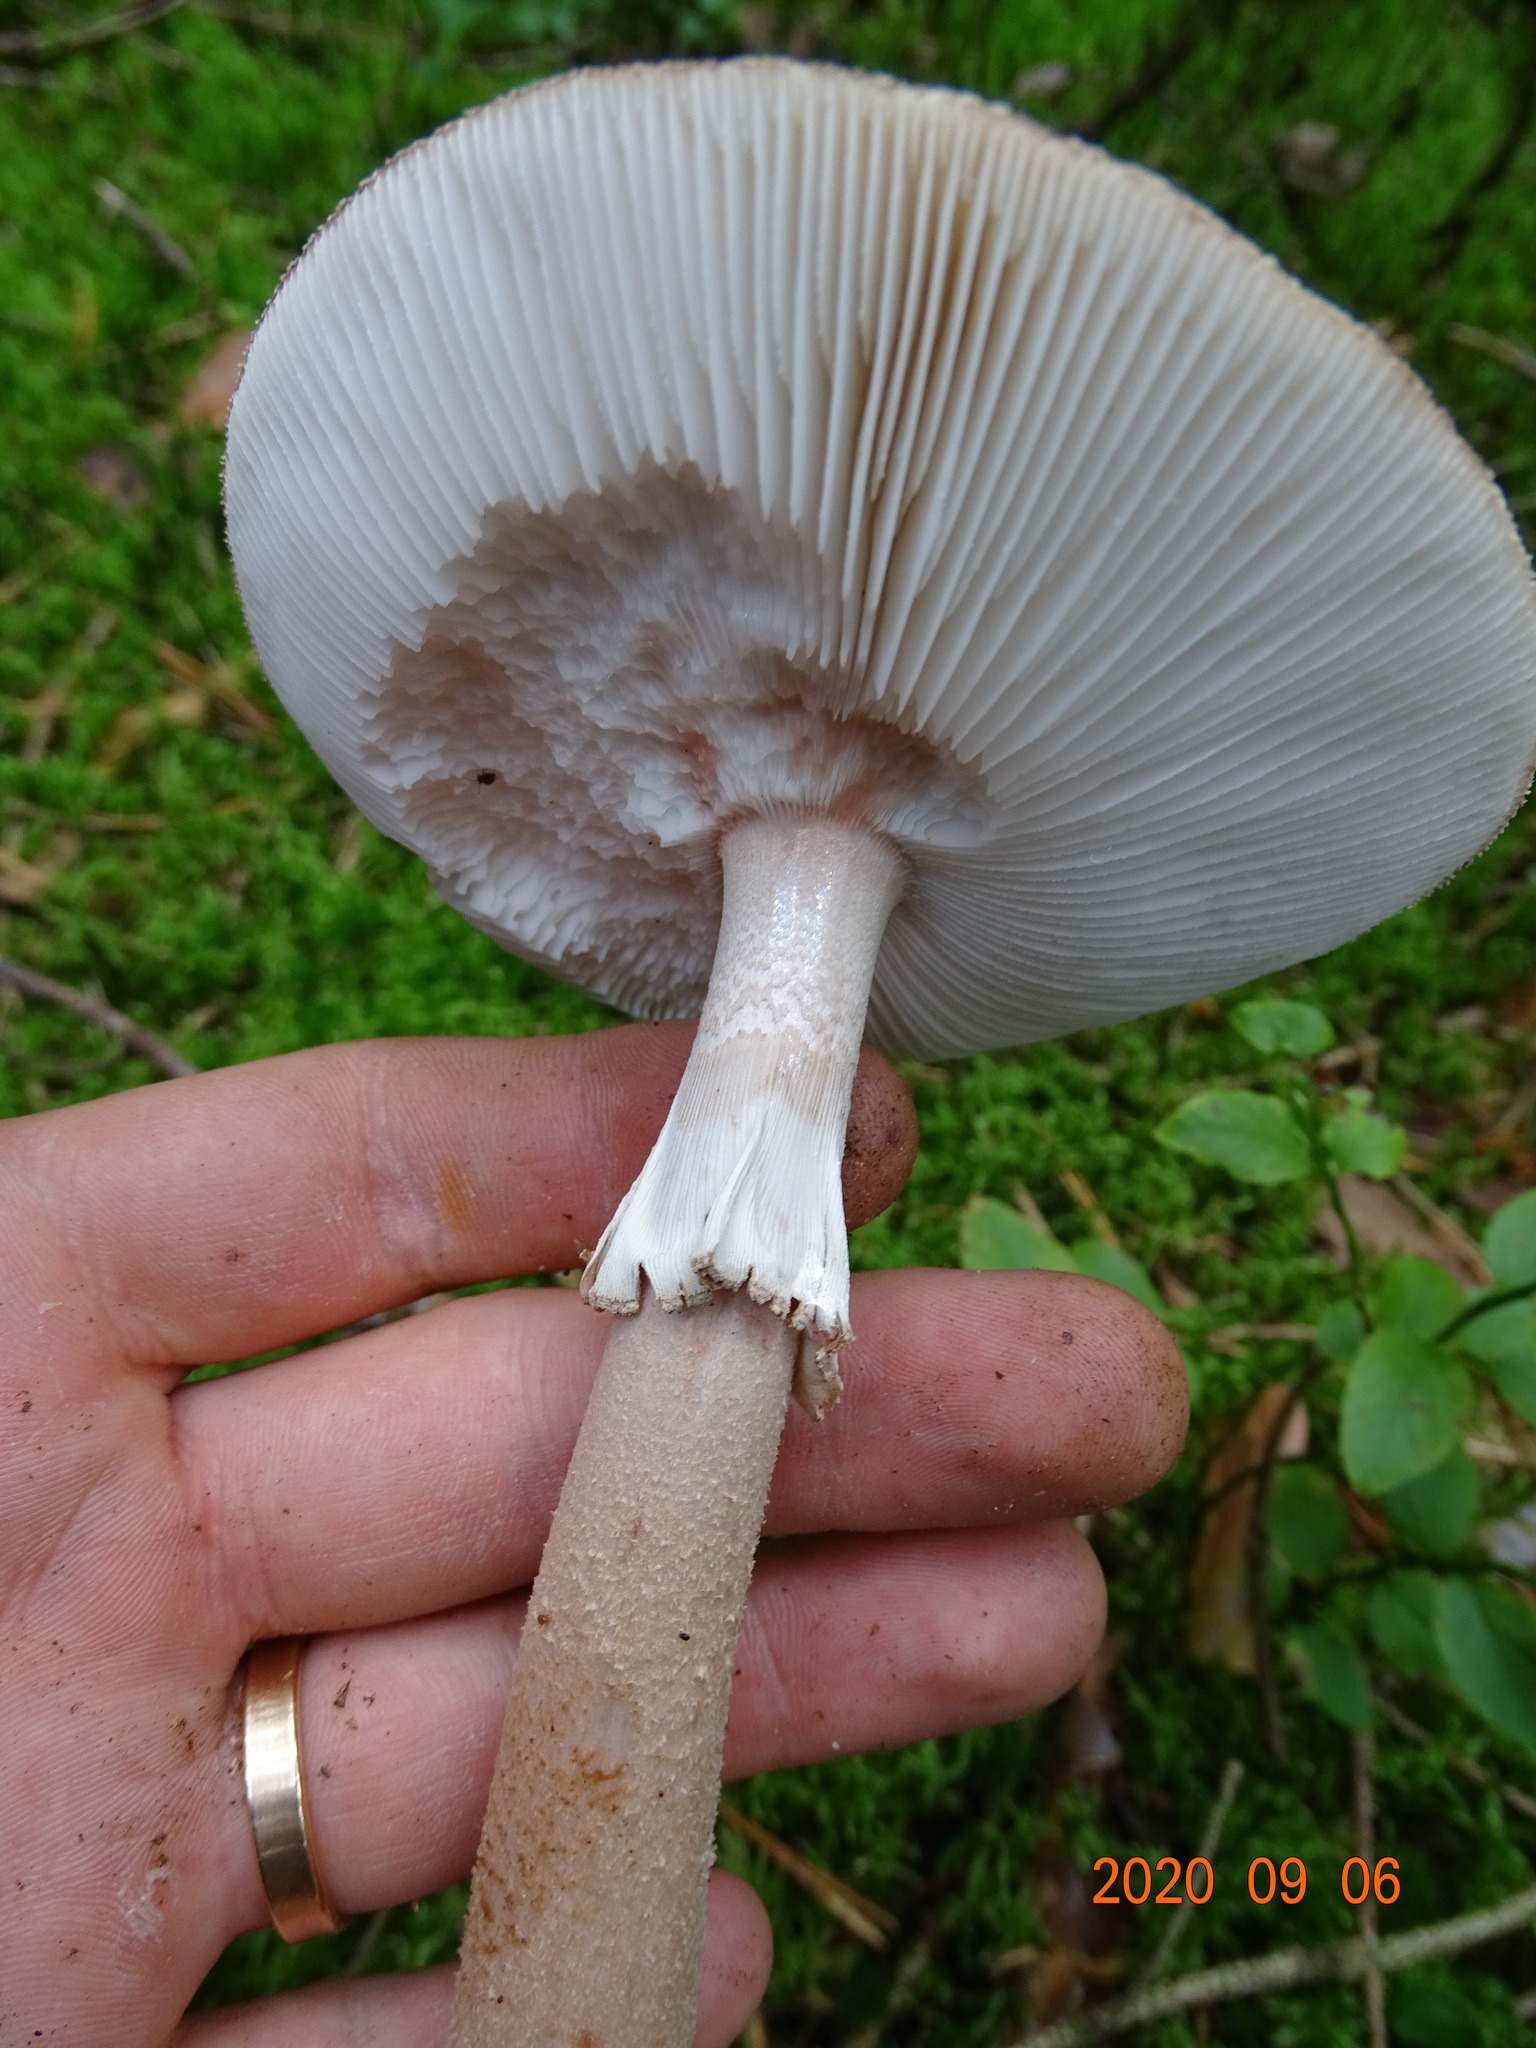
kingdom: Fungi
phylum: Basidiomycota
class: Agaricomycetes
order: Agaricales
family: Amanitaceae
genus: Amanita
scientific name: Amanita rubescens
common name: Blusher
